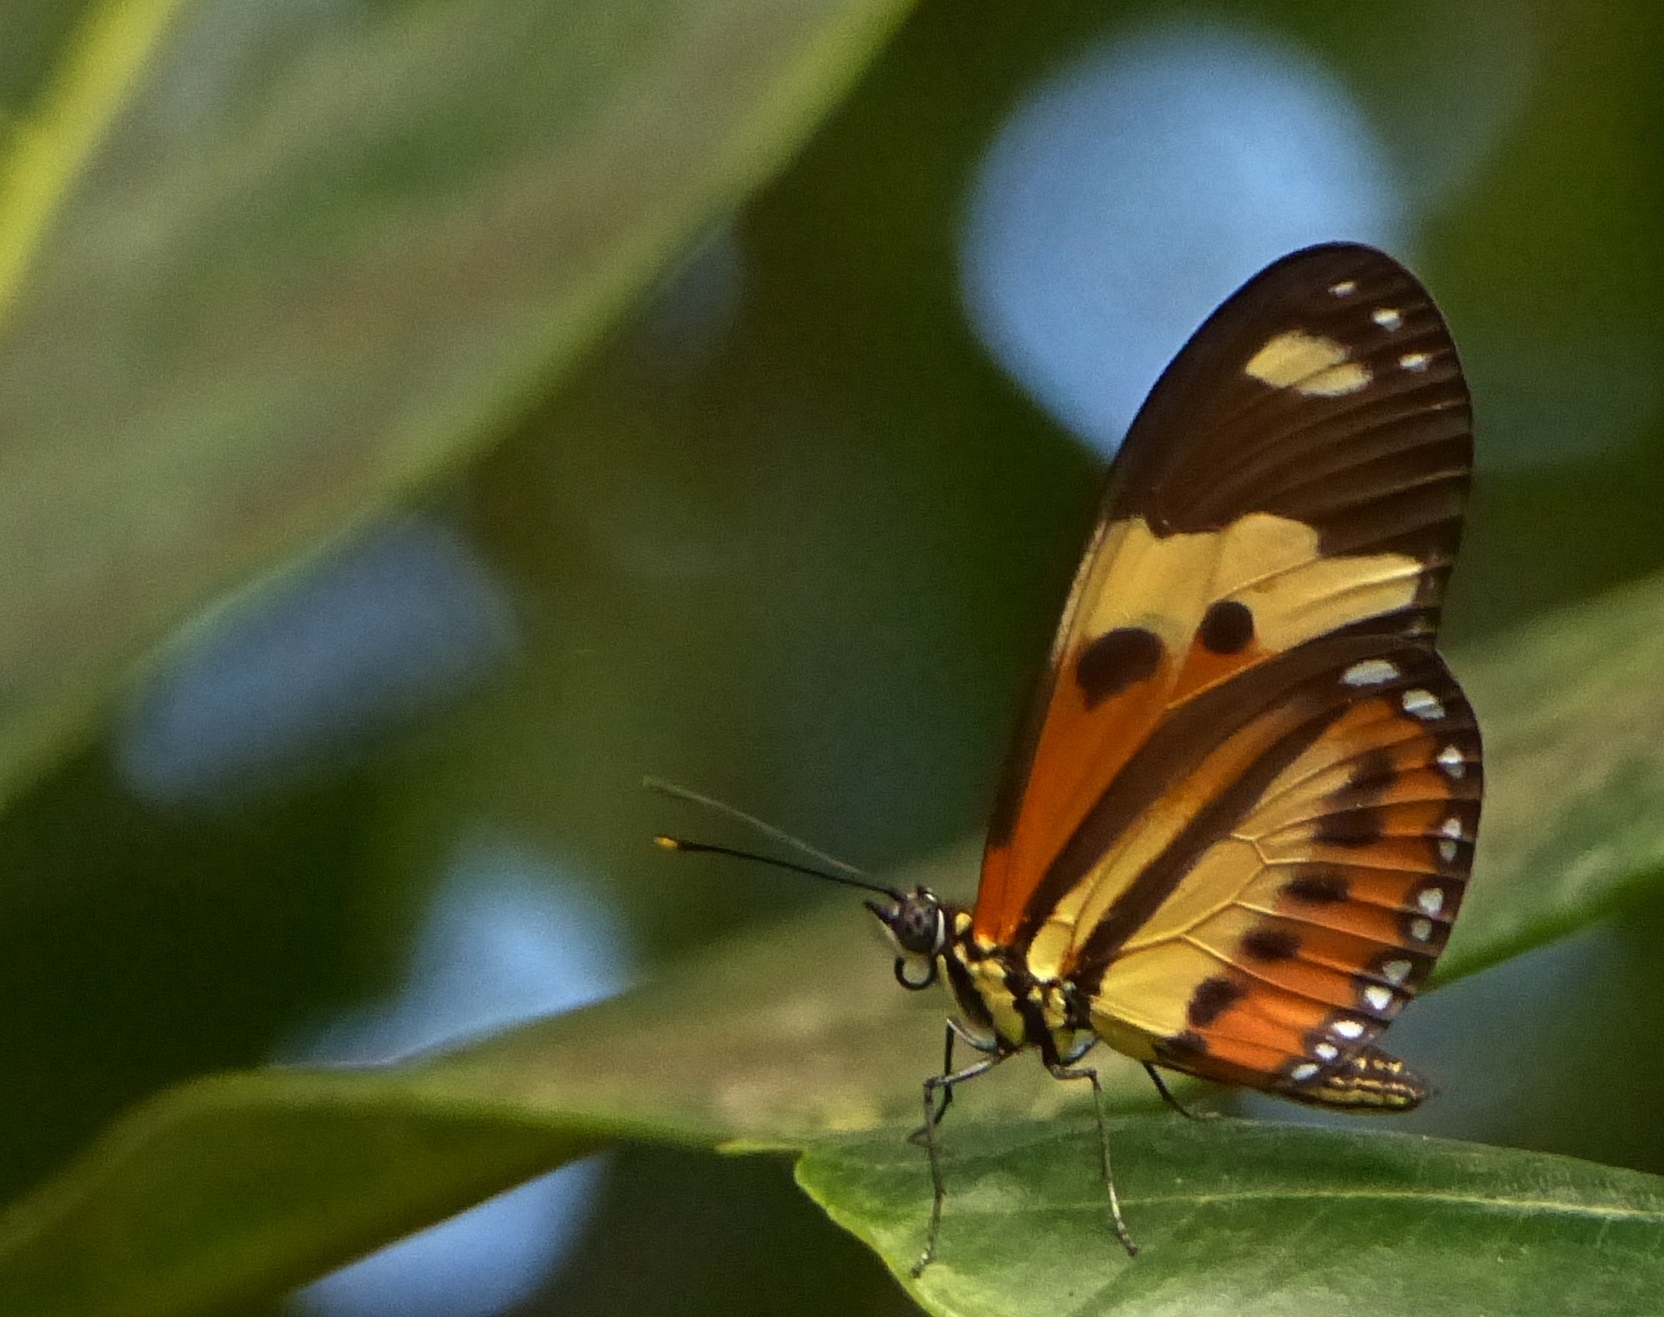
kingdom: Animalia
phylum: Arthropoda
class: Insecta
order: Lepidoptera
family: Nymphalidae
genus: Eueides
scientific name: Eueides isabella
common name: Isabella's longwing
